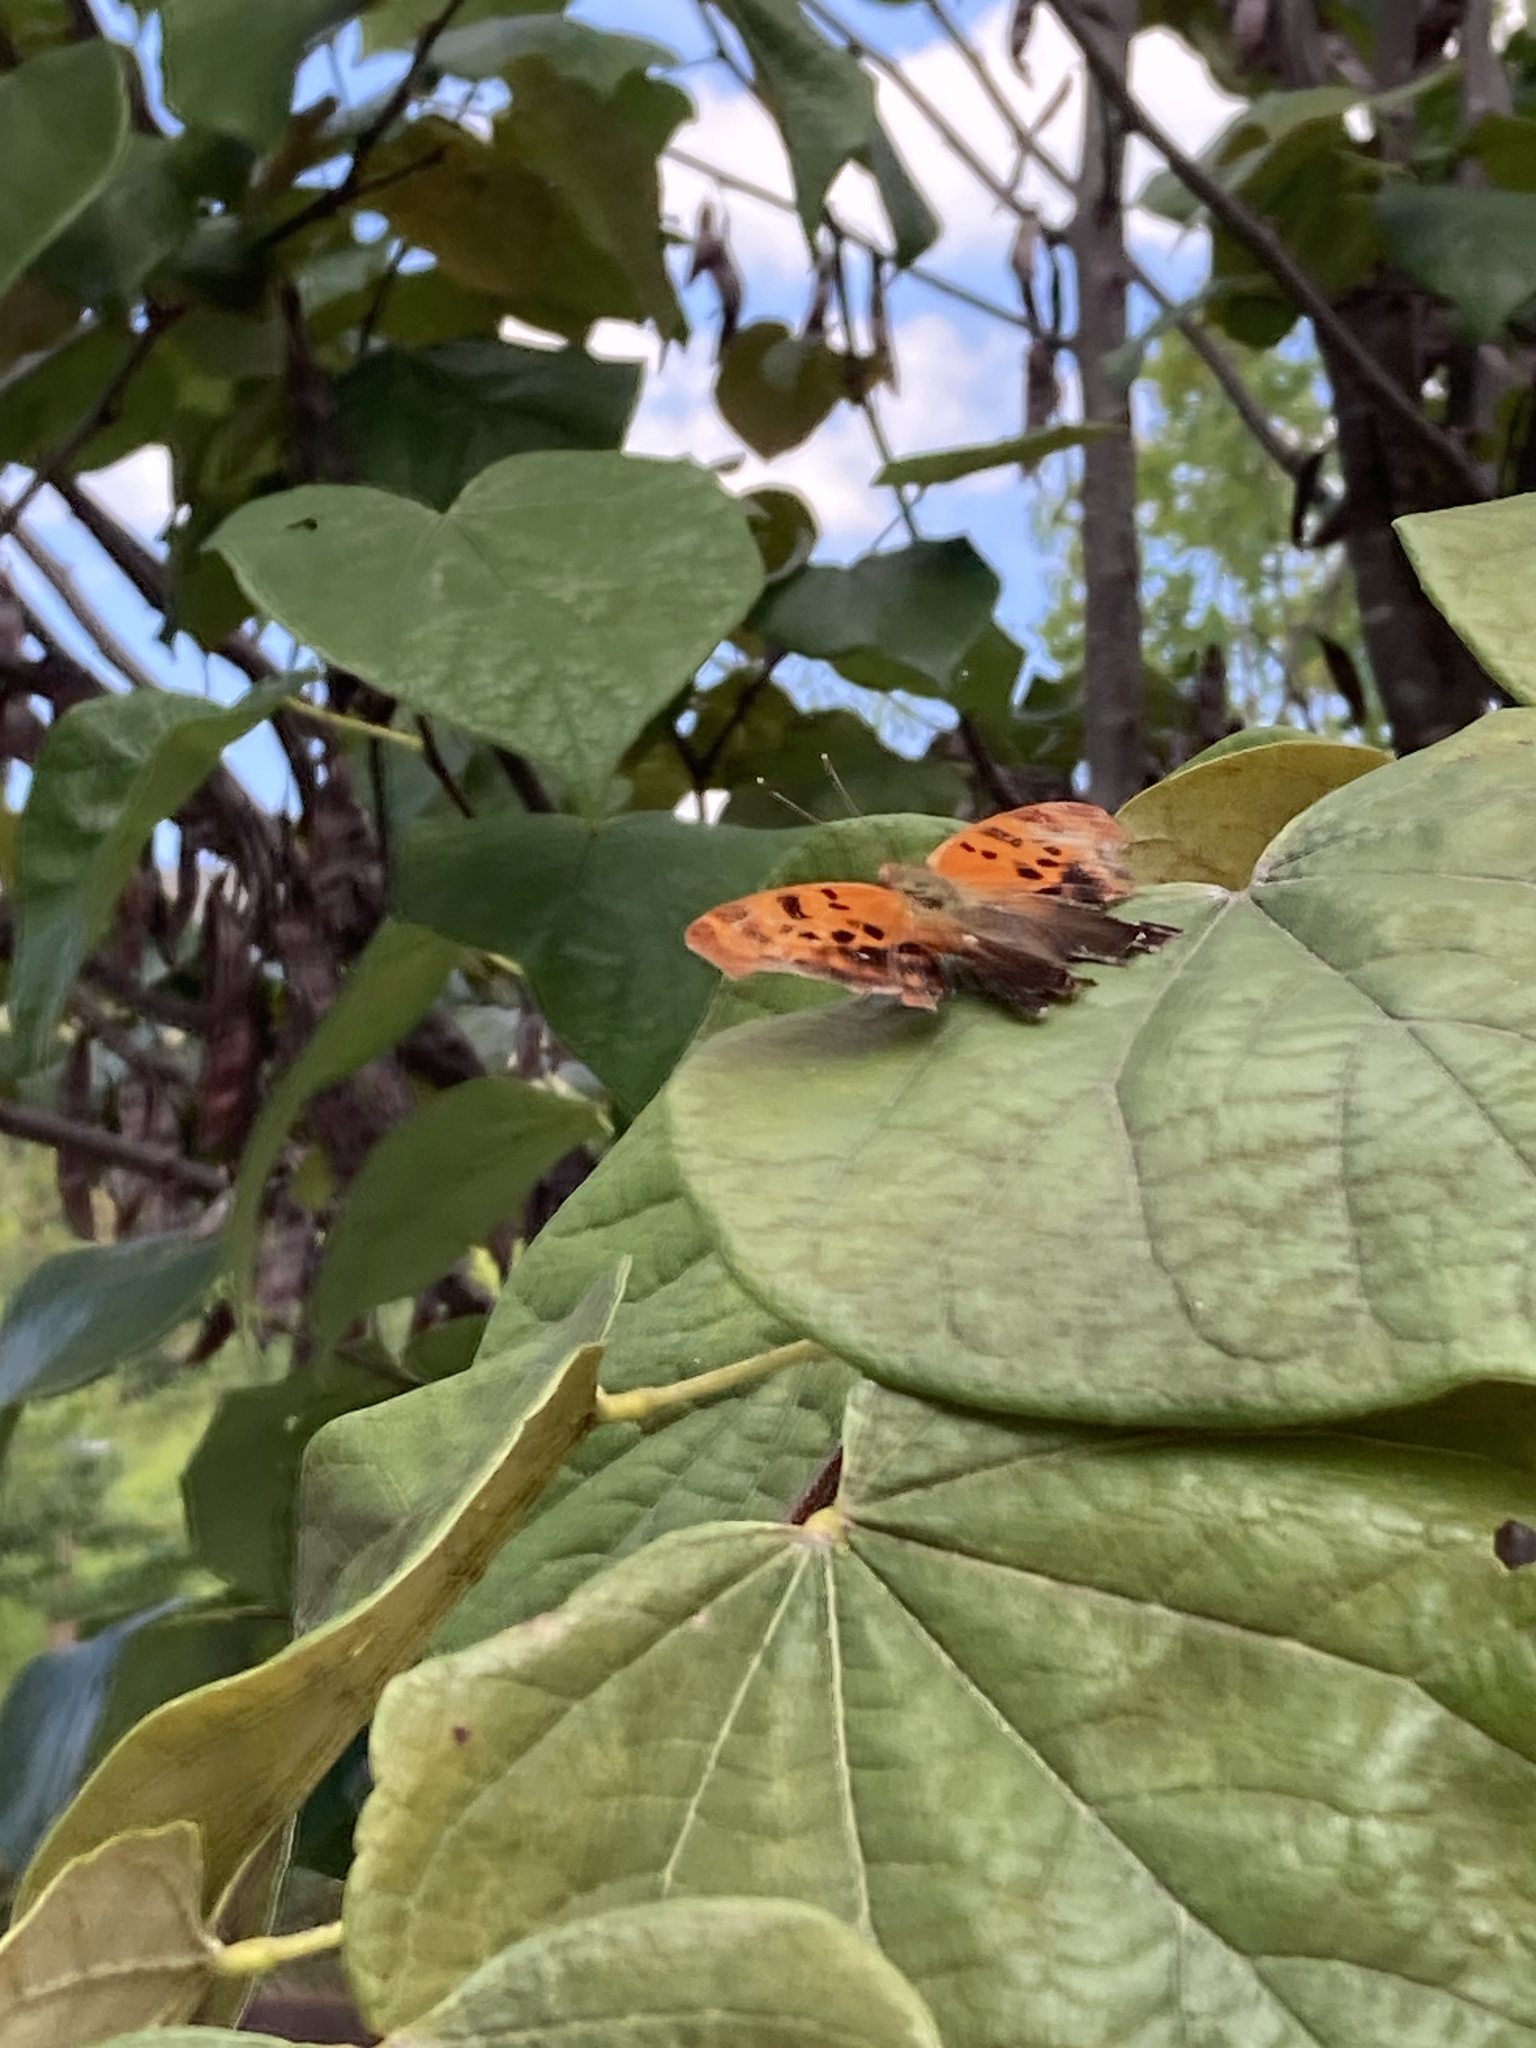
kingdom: Animalia
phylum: Arthropoda
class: Insecta
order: Lepidoptera
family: Nymphalidae
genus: Polygonia
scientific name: Polygonia interrogationis
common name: Question mark
